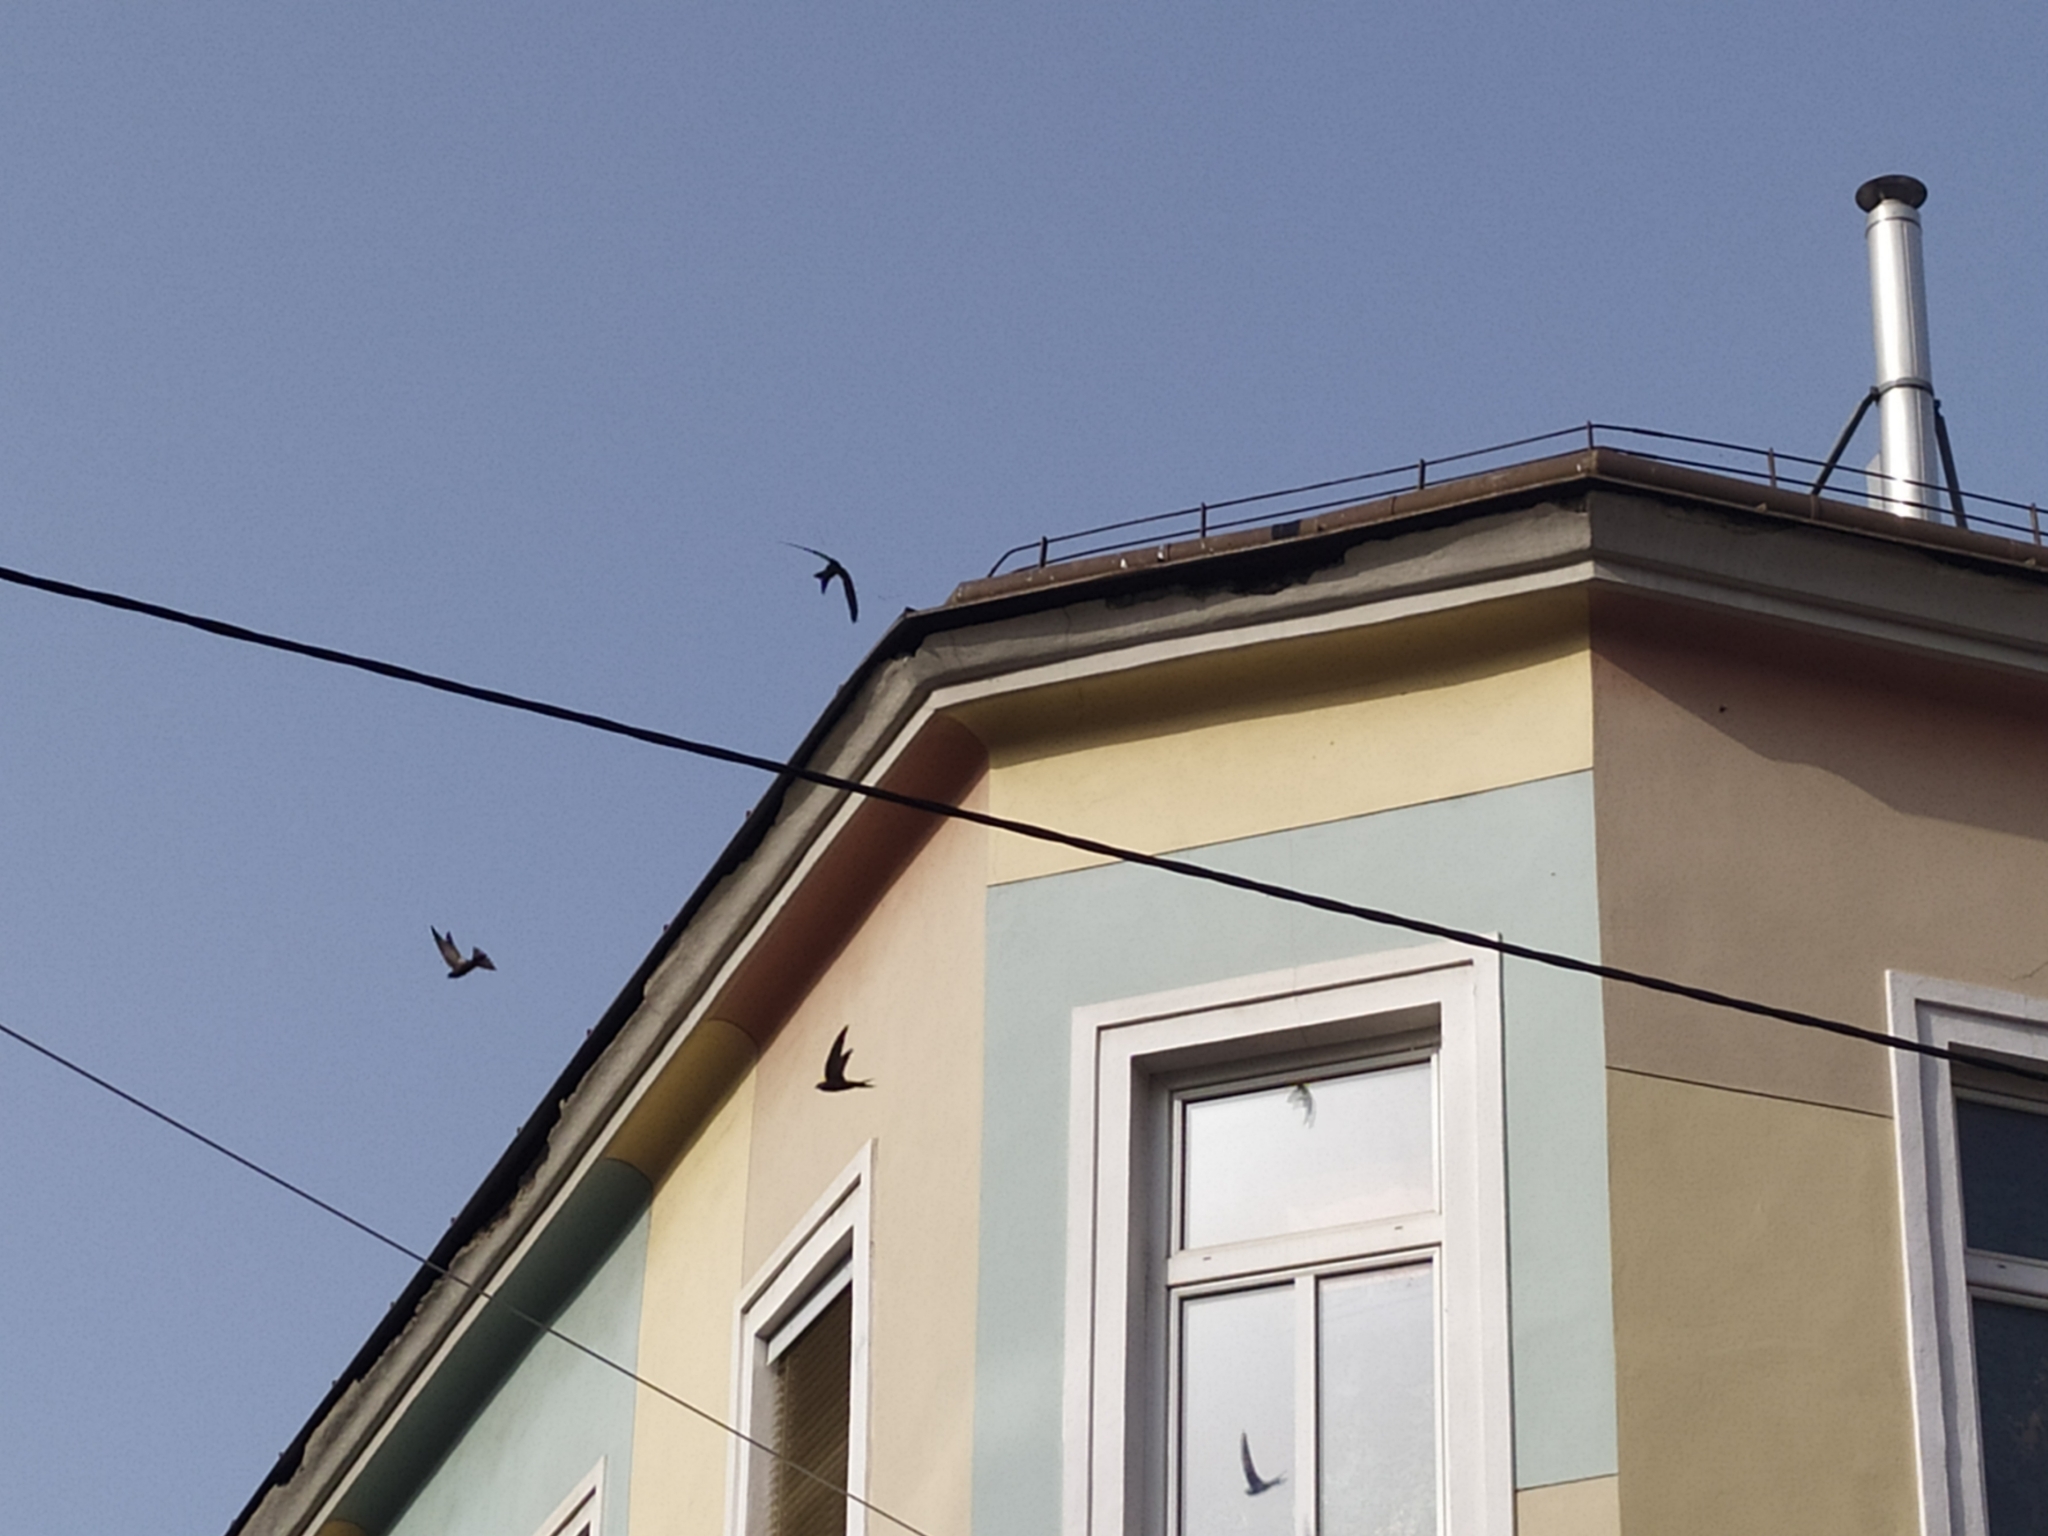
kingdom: Animalia
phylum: Chordata
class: Aves
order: Apodiformes
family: Apodidae
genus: Apus
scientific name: Apus apus
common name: Common swift
